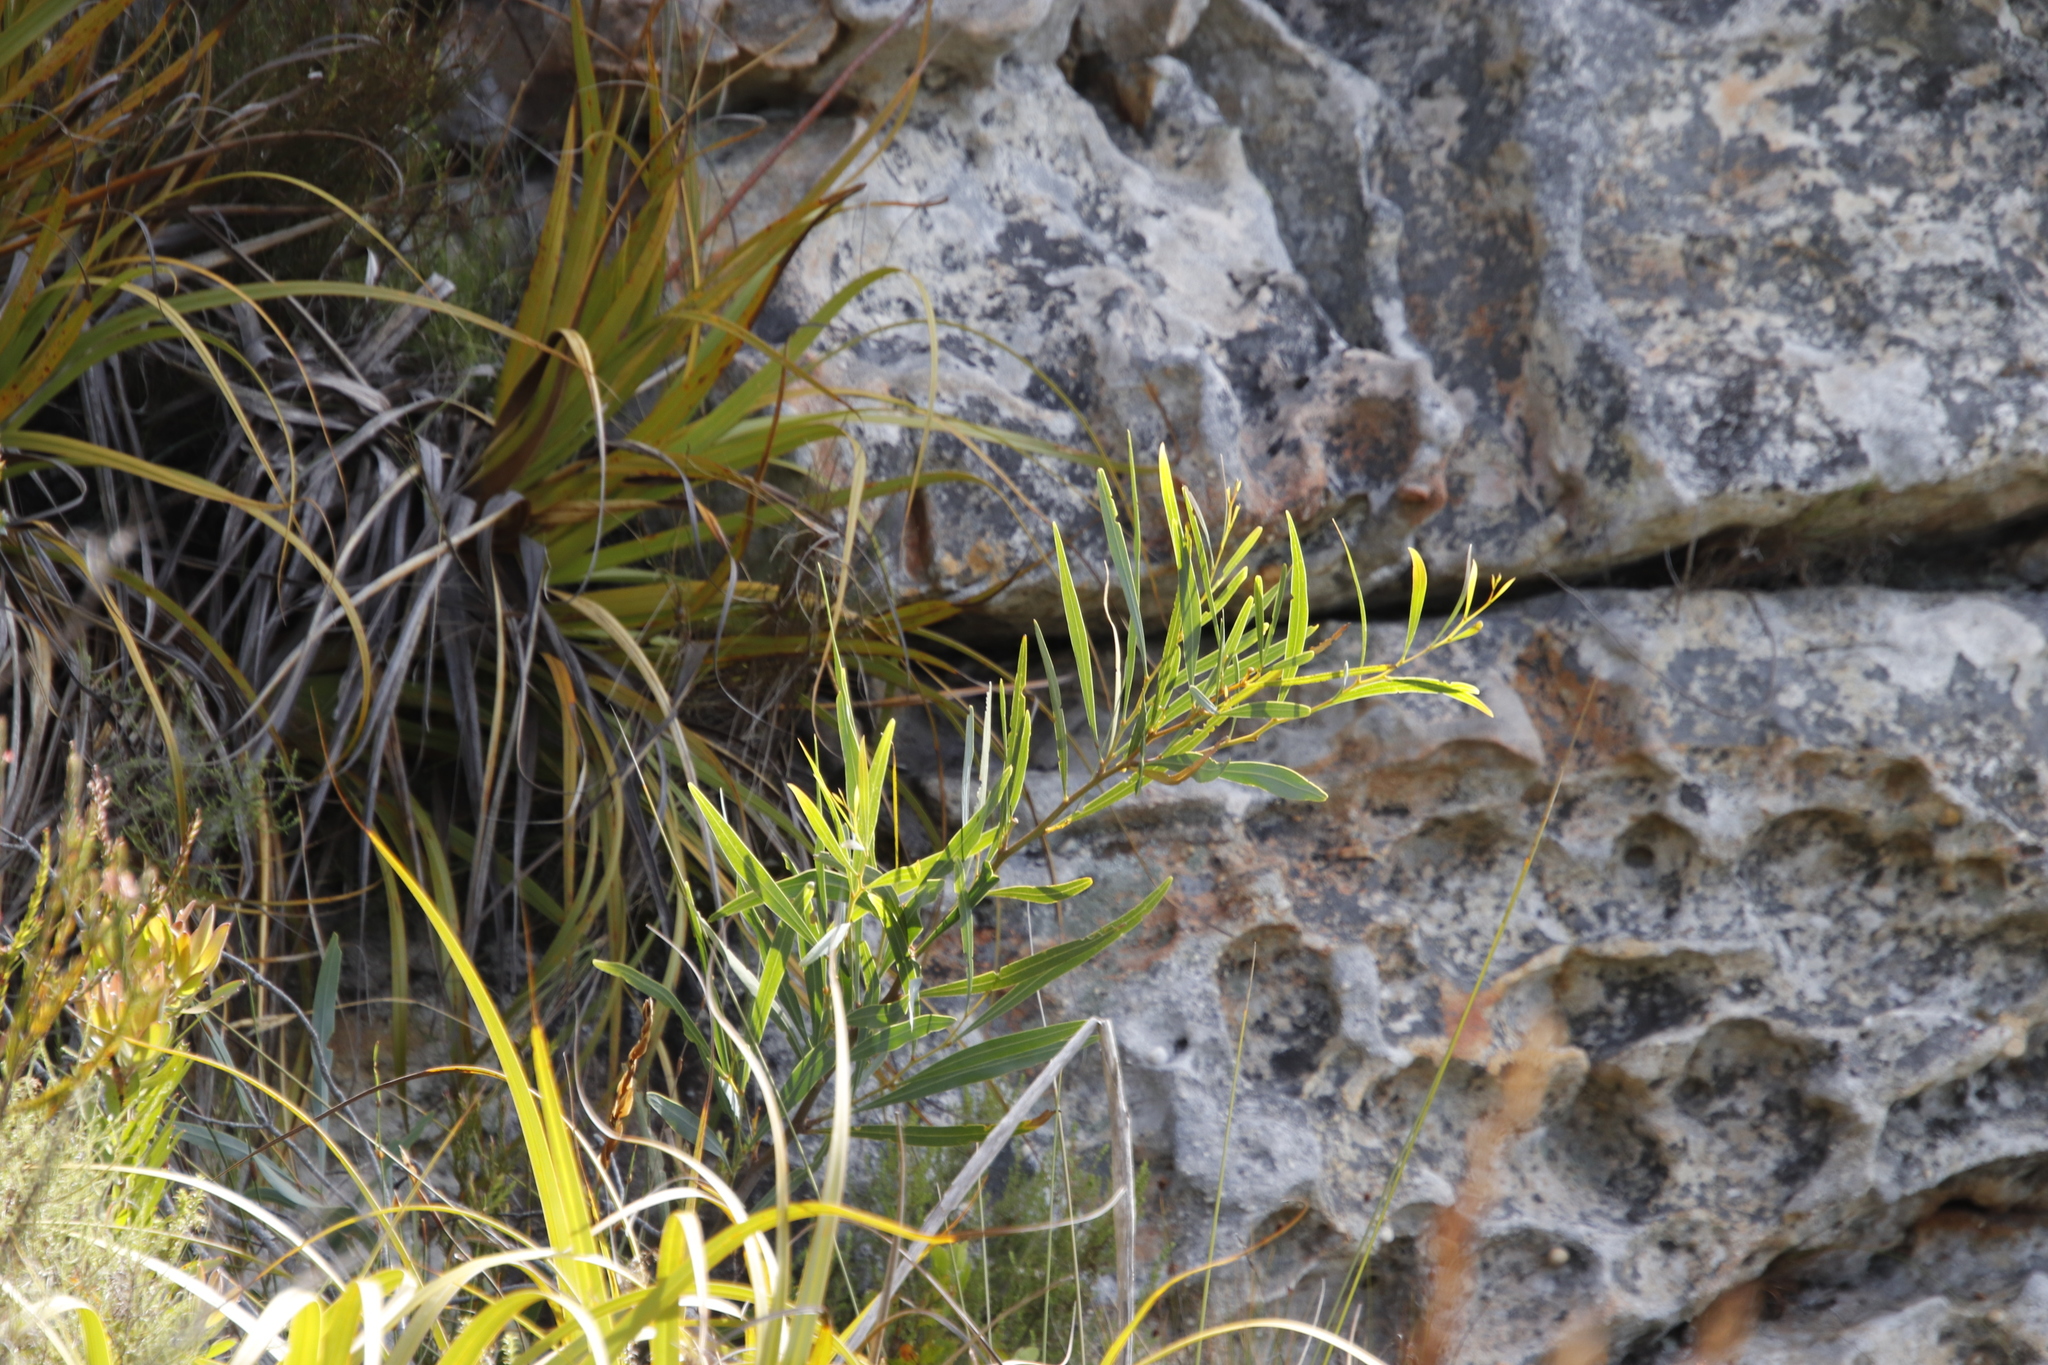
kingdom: Plantae
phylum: Tracheophyta
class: Magnoliopsida
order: Fabales
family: Fabaceae
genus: Acacia
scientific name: Acacia saligna
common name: Orange wattle
